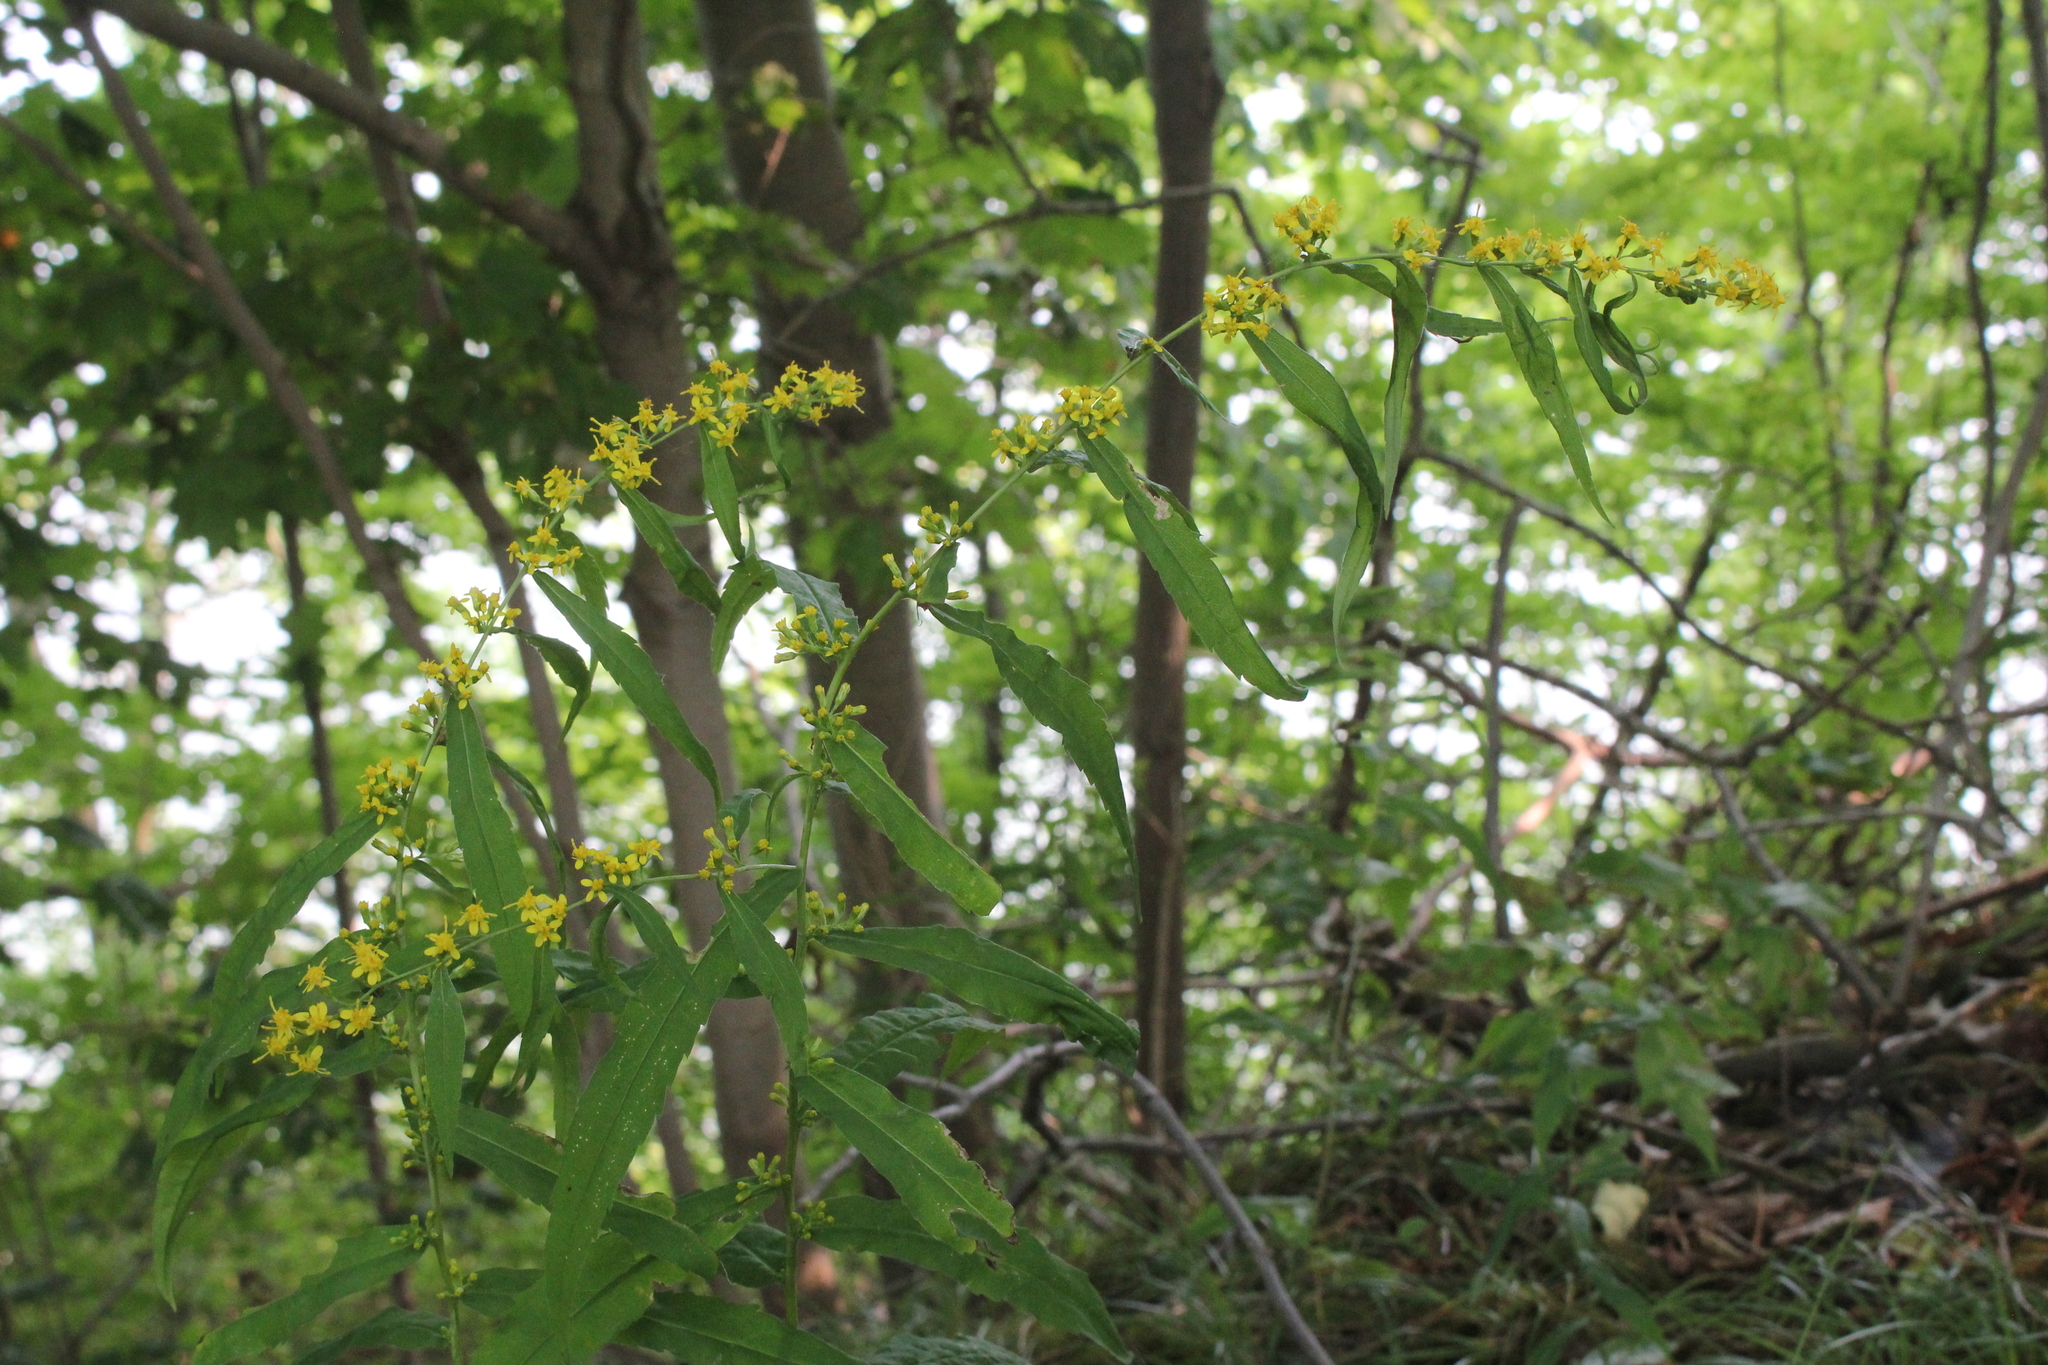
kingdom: Plantae
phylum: Tracheophyta
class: Magnoliopsida
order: Asterales
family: Asteraceae
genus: Solidago
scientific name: Solidago caesia
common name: Woodland goldenrod
